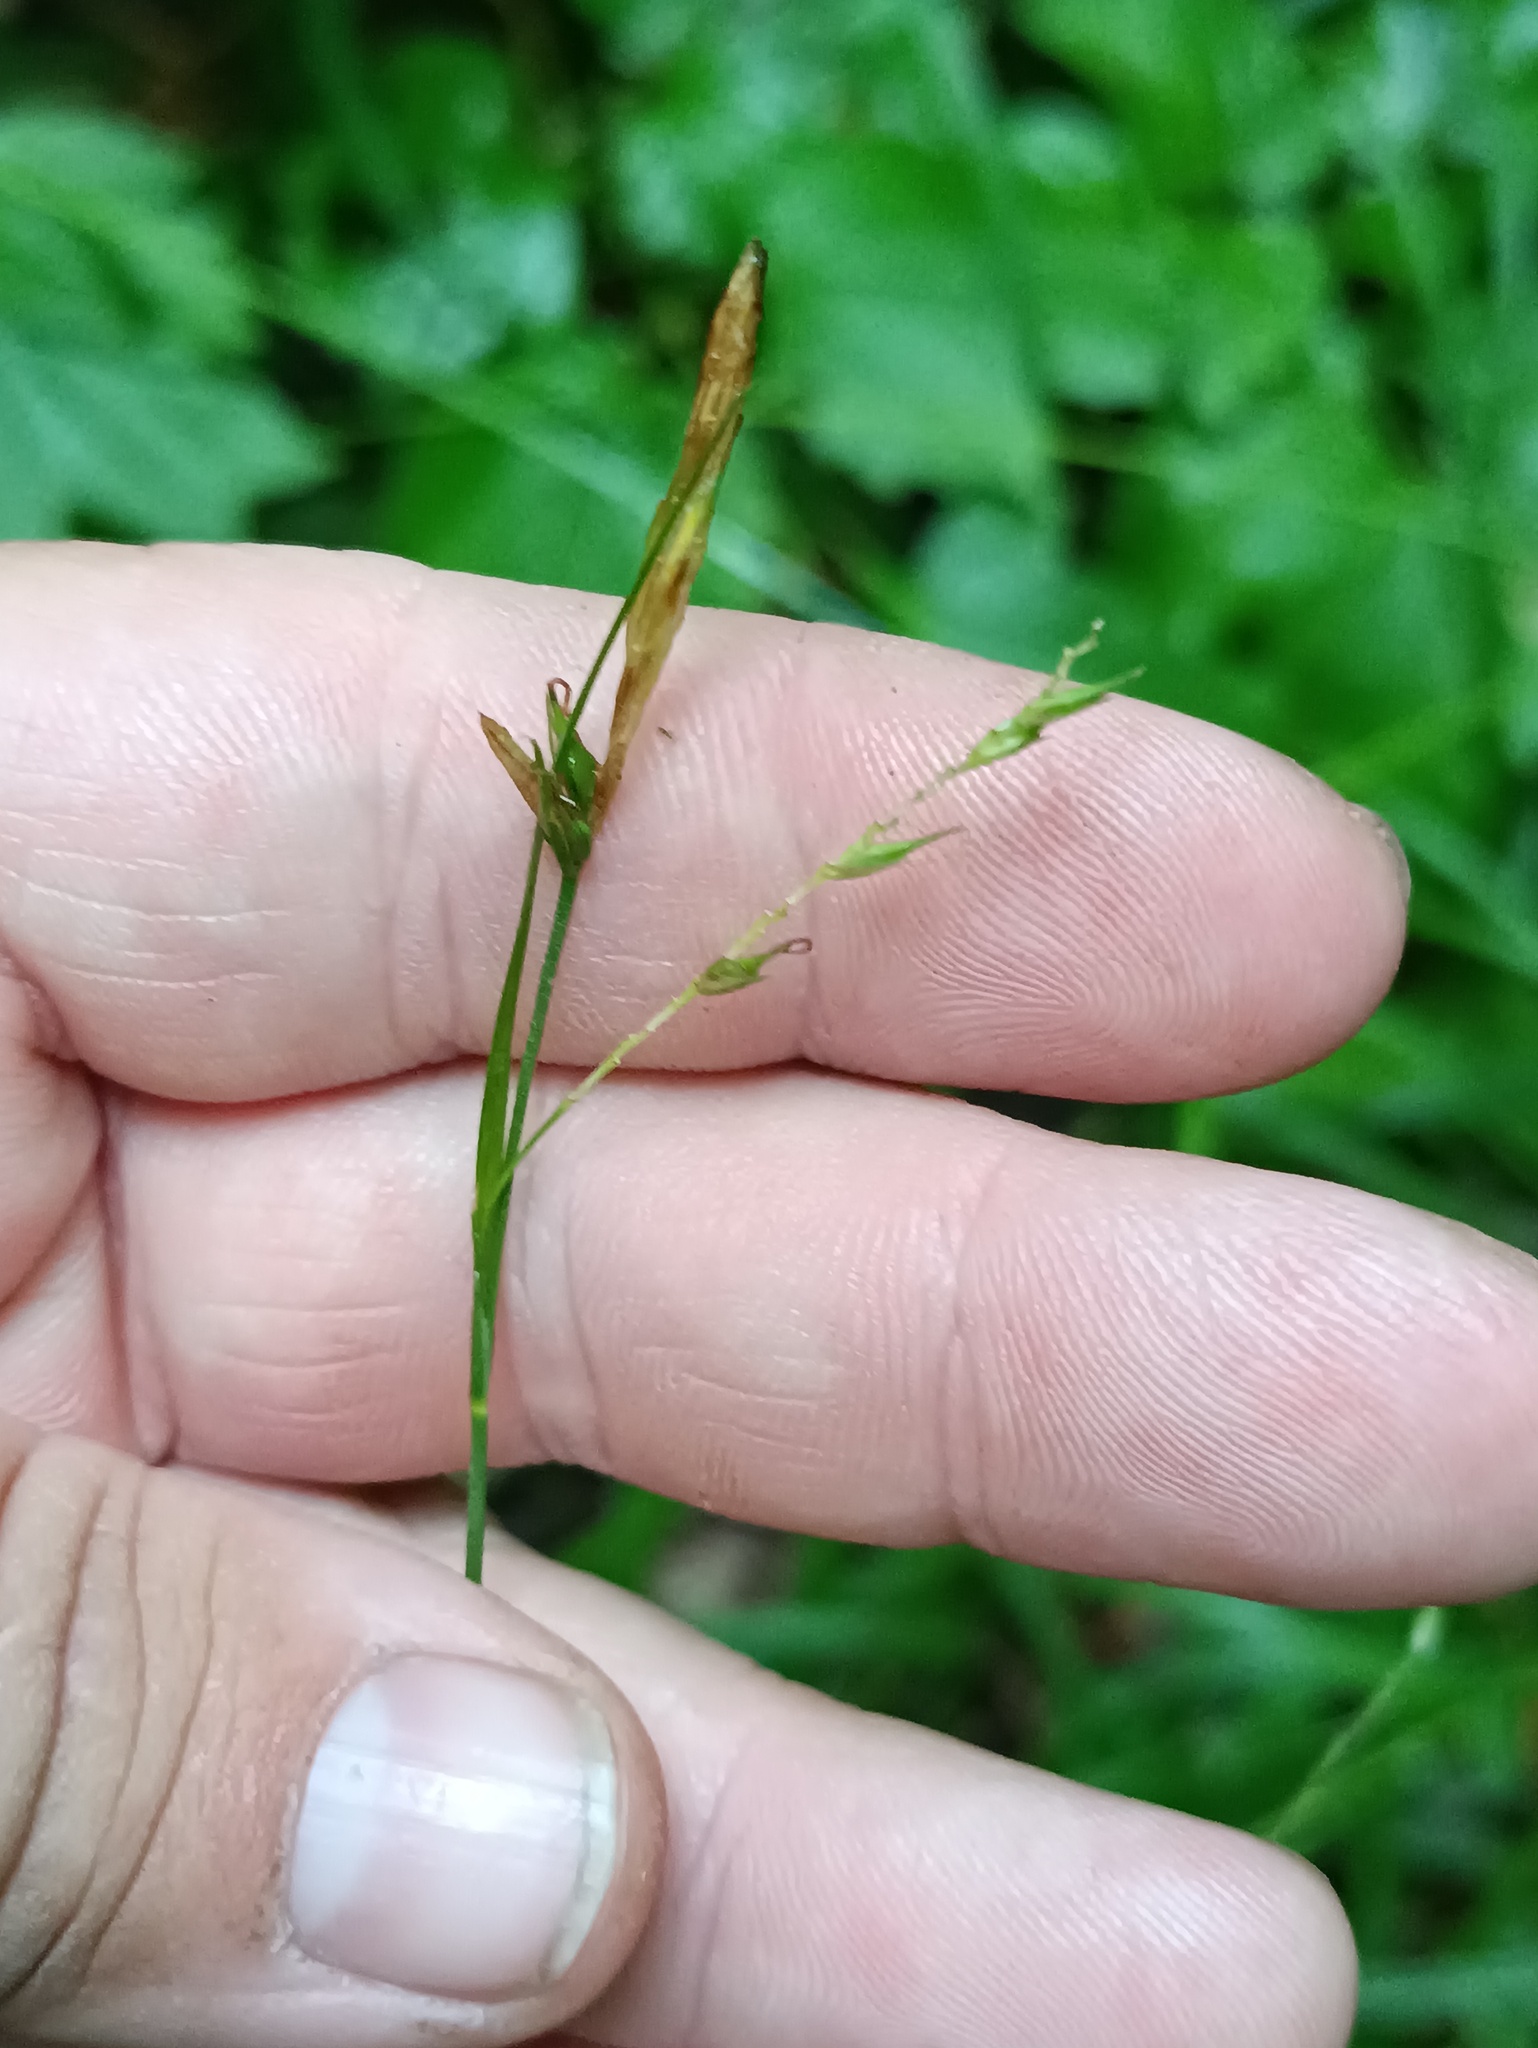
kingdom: Plantae
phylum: Tracheophyta
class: Liliopsida
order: Poales
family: Cyperaceae
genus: Carex
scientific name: Carex sylvatica
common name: Wood-sedge
